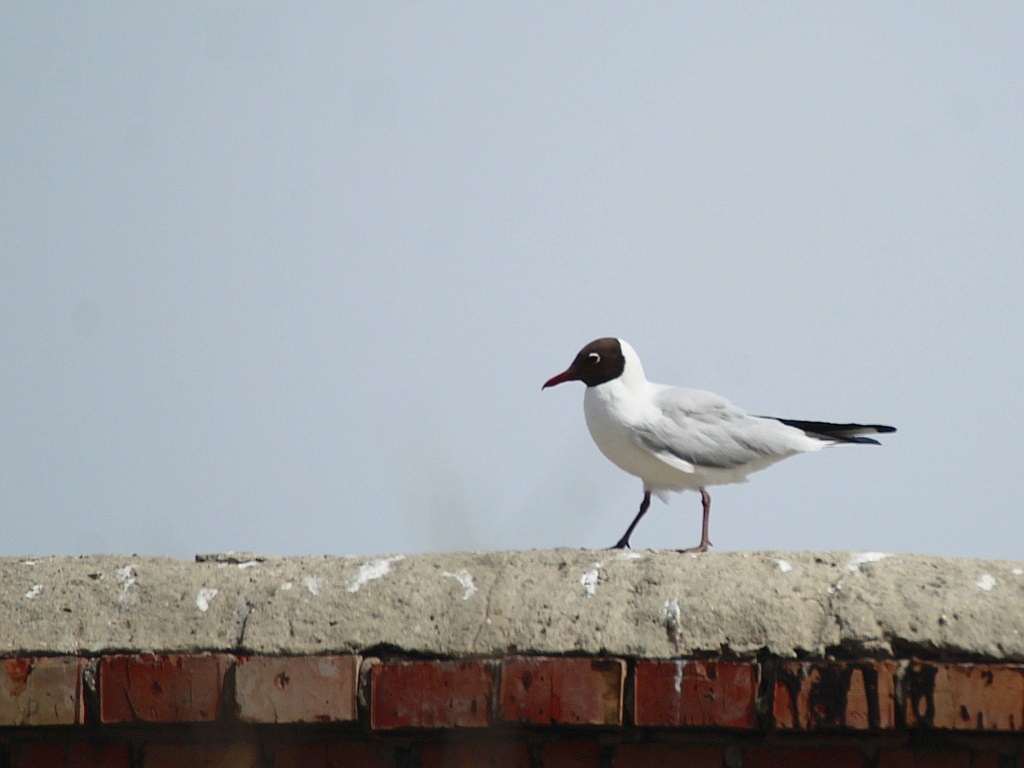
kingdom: Animalia
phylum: Chordata
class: Aves
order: Charadriiformes
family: Laridae
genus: Chroicocephalus
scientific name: Chroicocephalus ridibundus
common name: Black-headed gull
